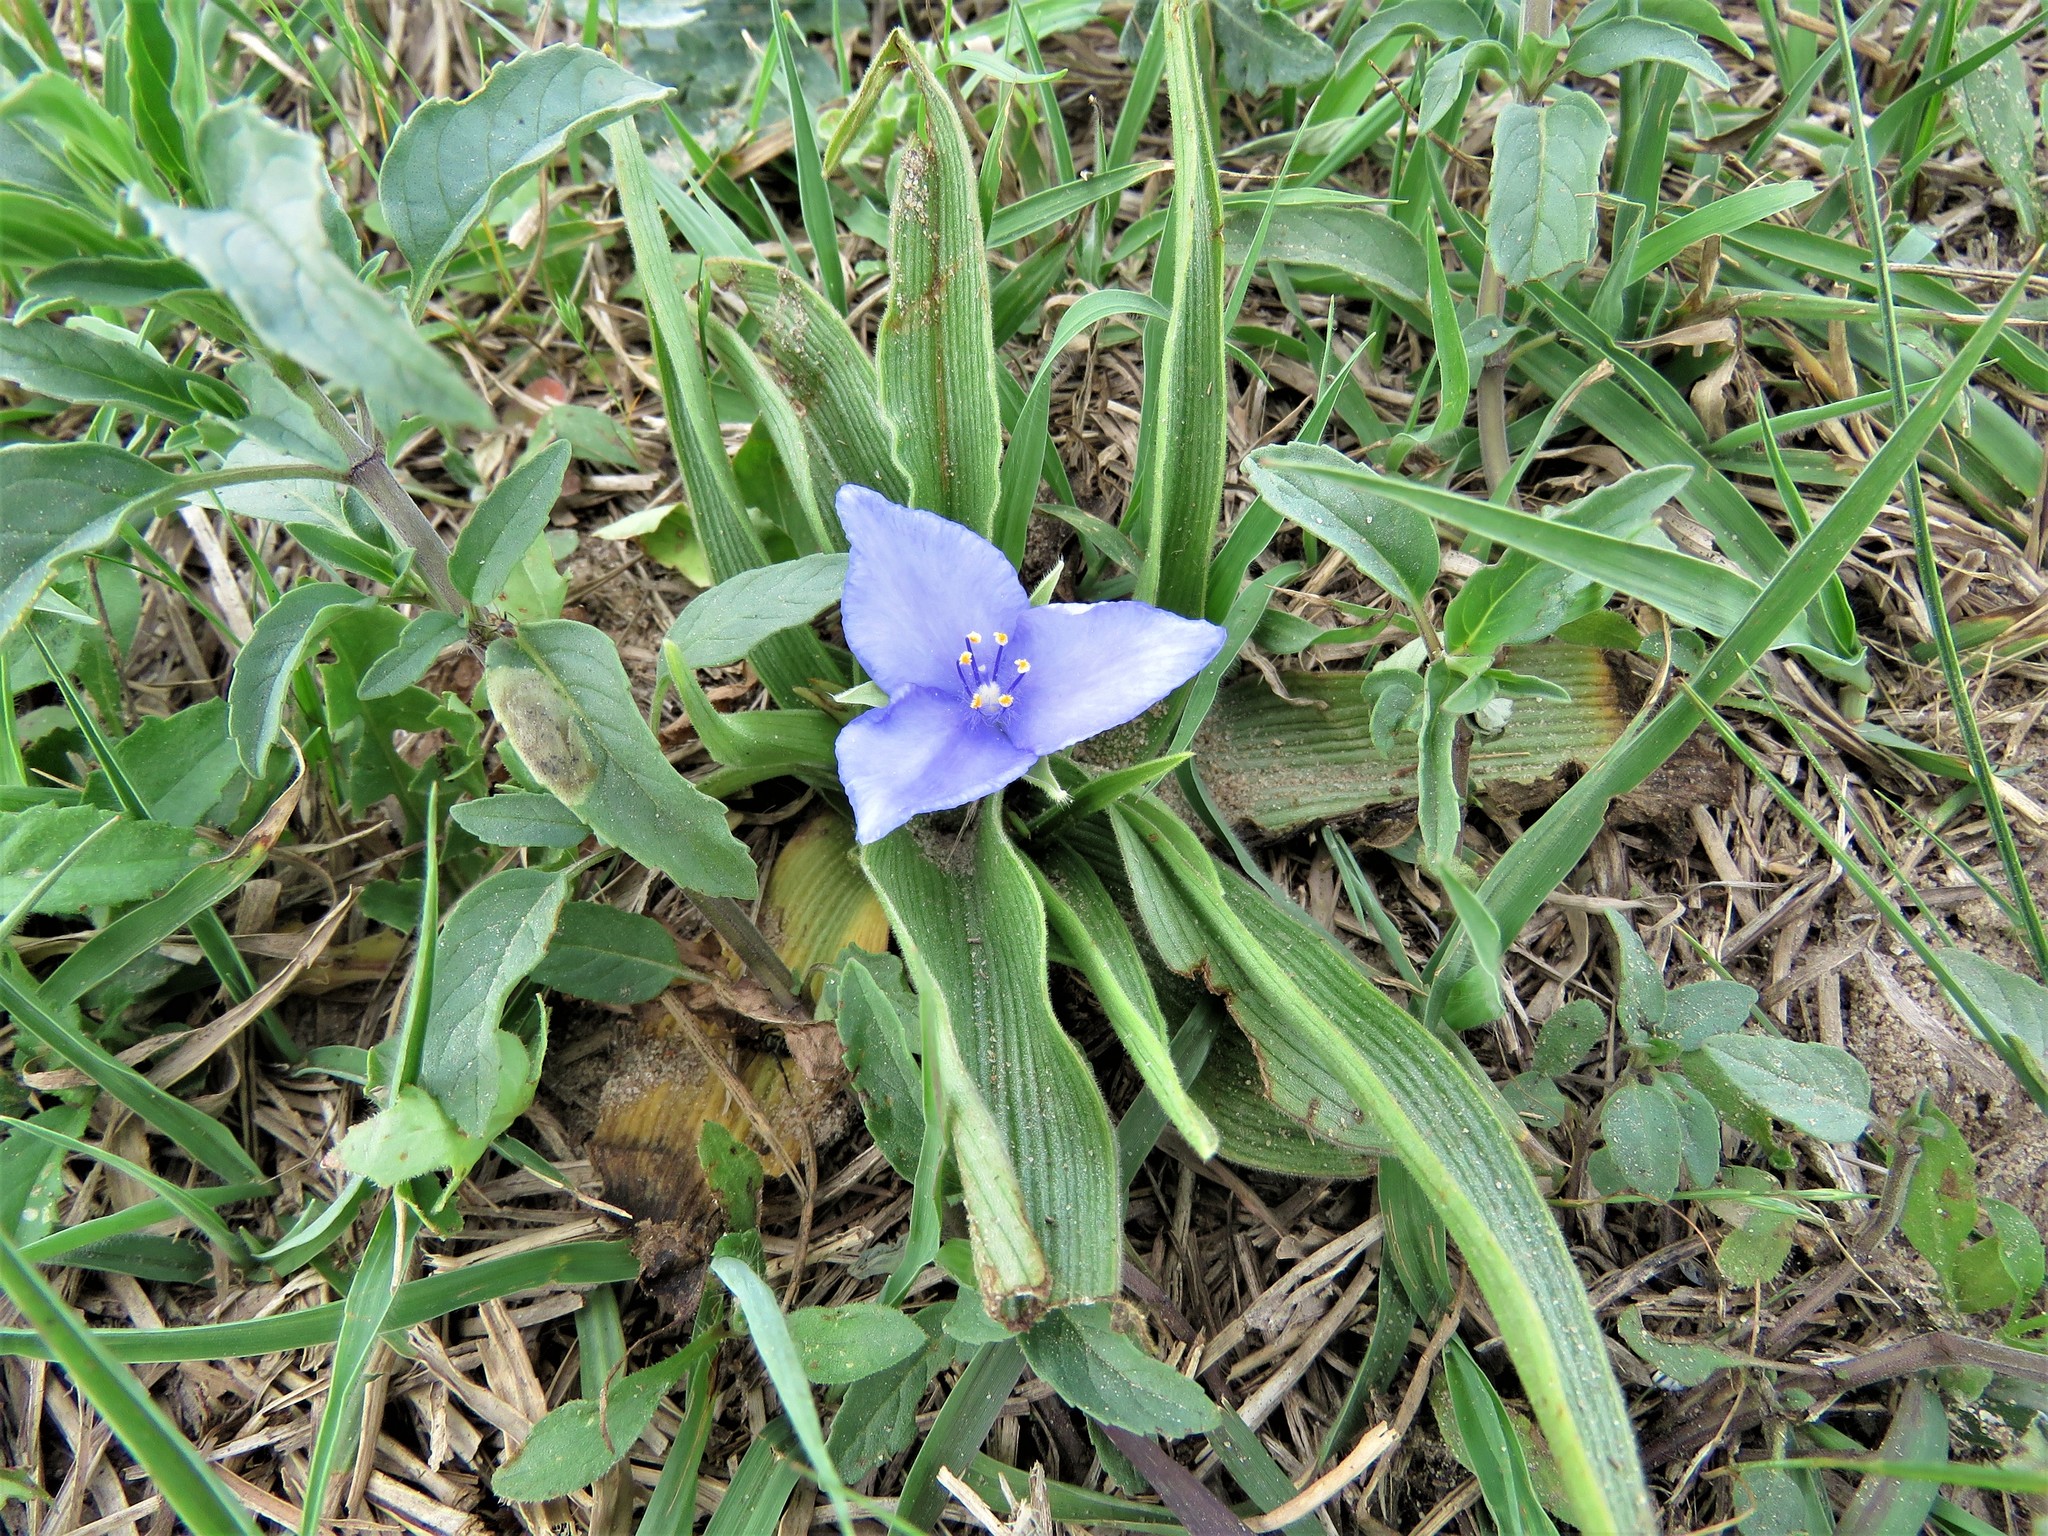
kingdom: Plantae
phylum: Tracheophyta
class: Liliopsida
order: Commelinales
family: Commelinaceae
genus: Tradescantia
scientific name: Tradescantia humilis
